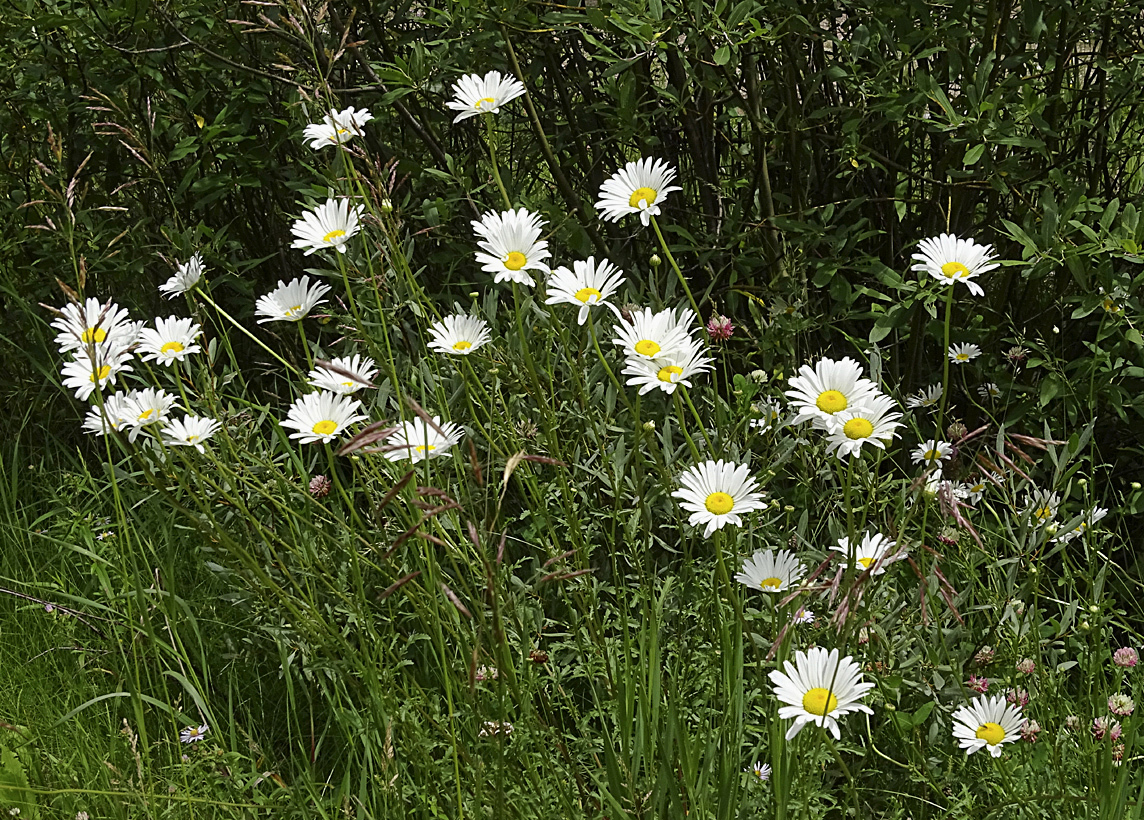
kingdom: Plantae
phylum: Tracheophyta
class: Magnoliopsida
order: Asterales
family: Asteraceae
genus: Leucanthemum
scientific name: Leucanthemum vulgare
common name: Oxeye daisy
